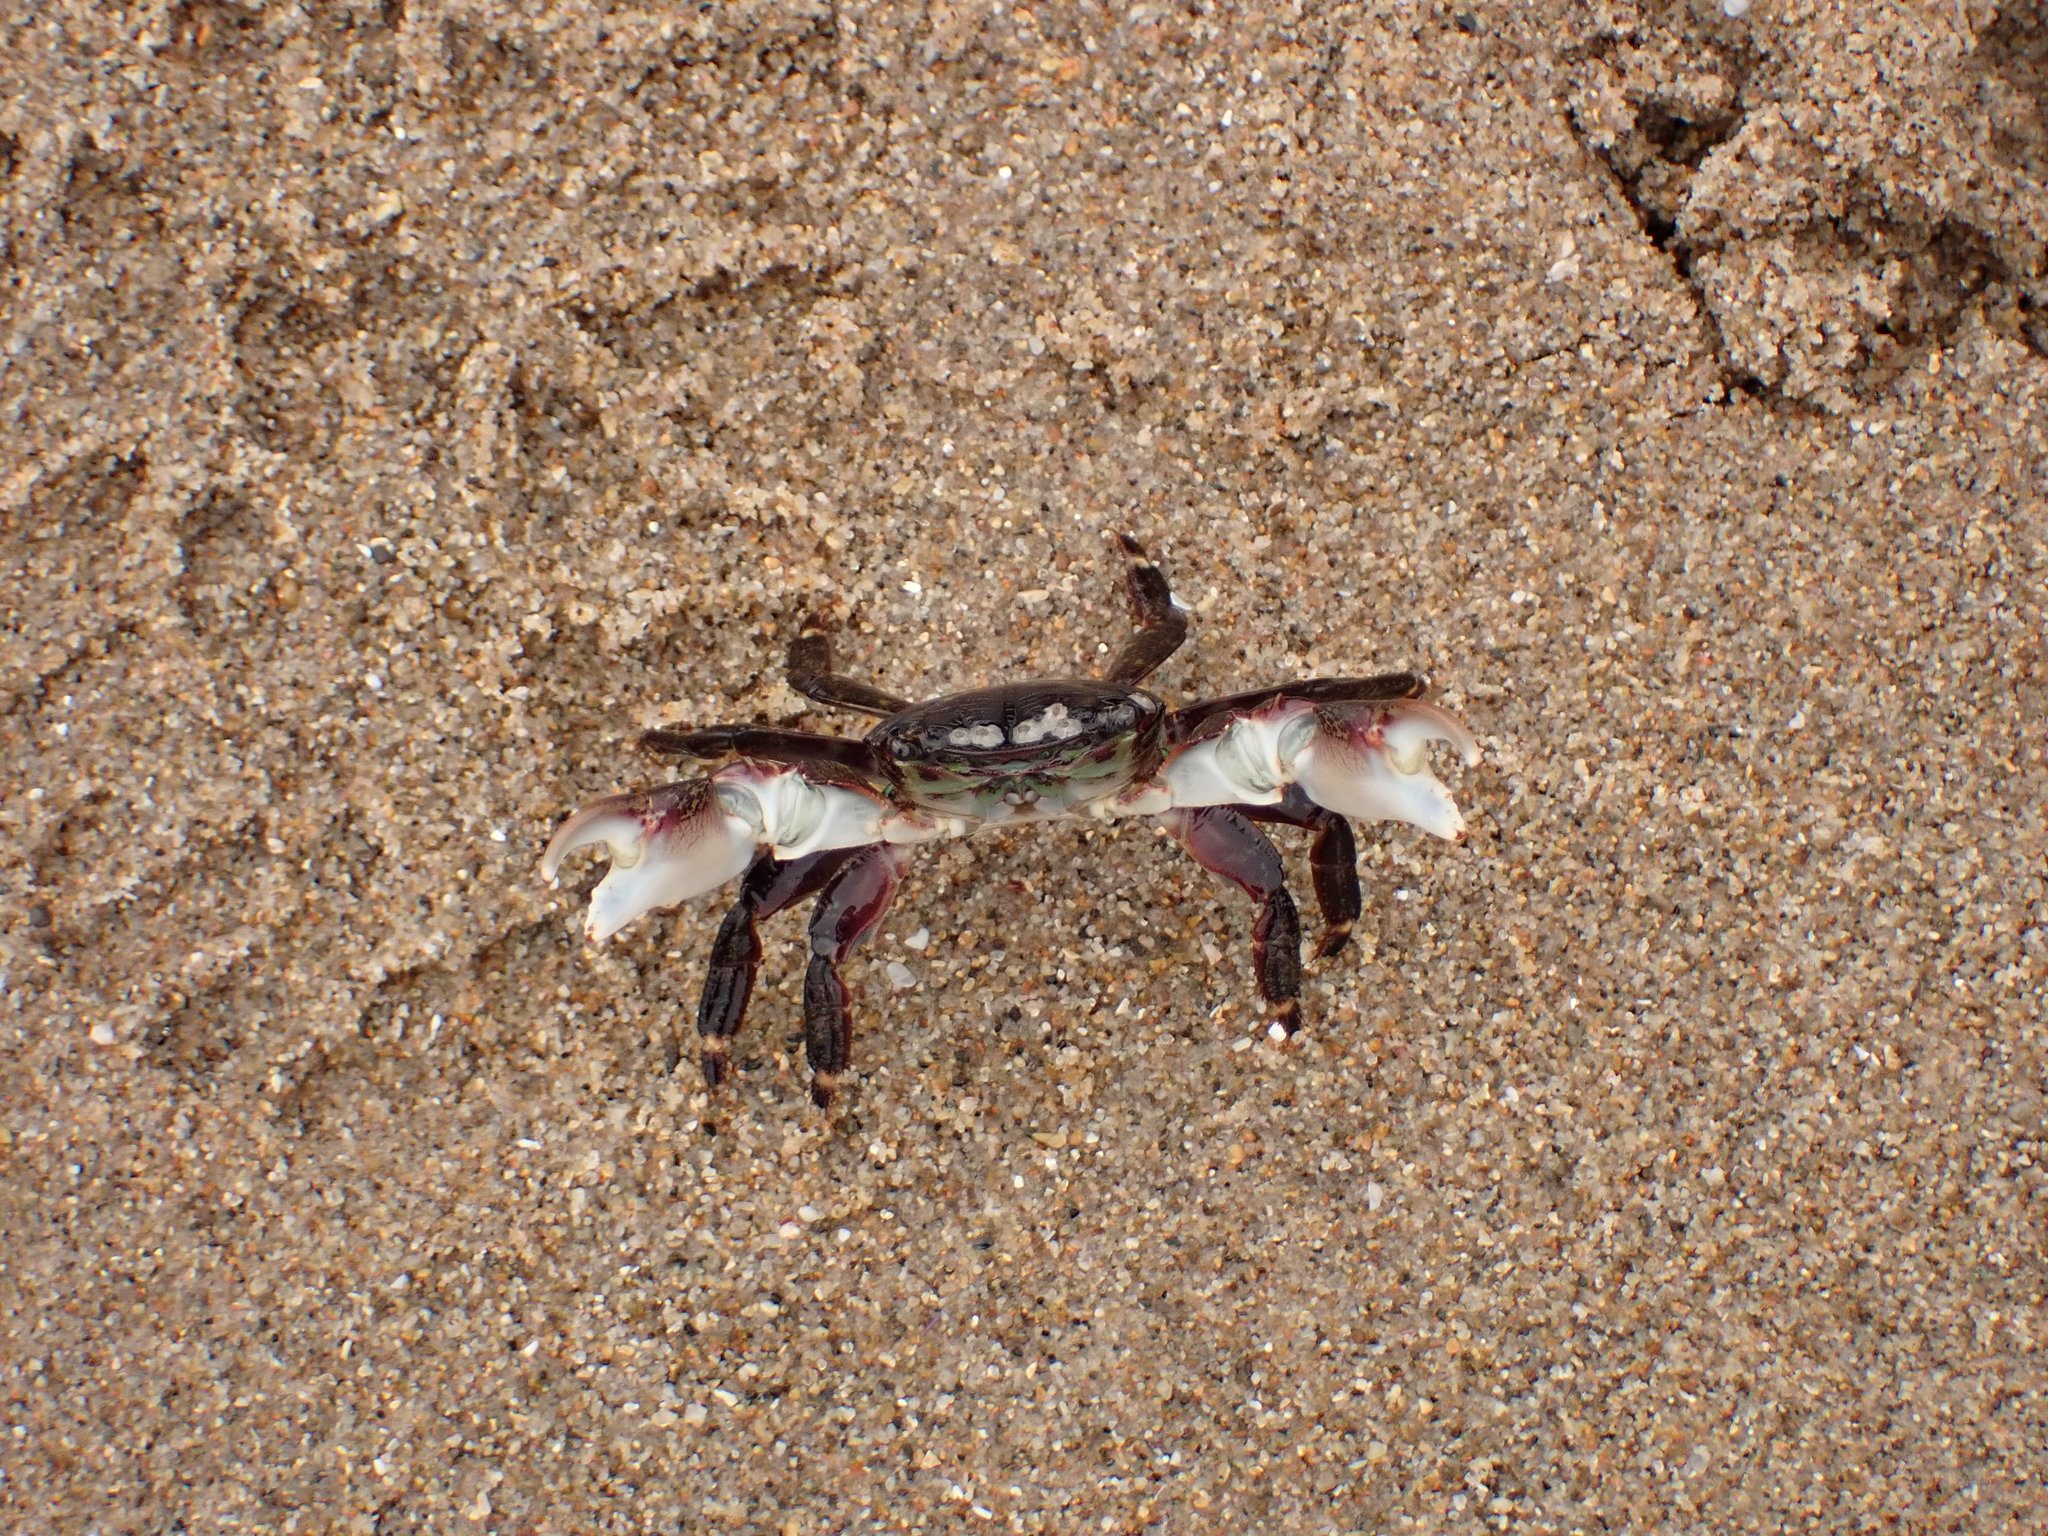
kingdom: Animalia
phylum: Arthropoda
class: Malacostraca
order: Decapoda
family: Grapsidae
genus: Pachygrapsus
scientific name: Pachygrapsus crassipes
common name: Striped shore crab
